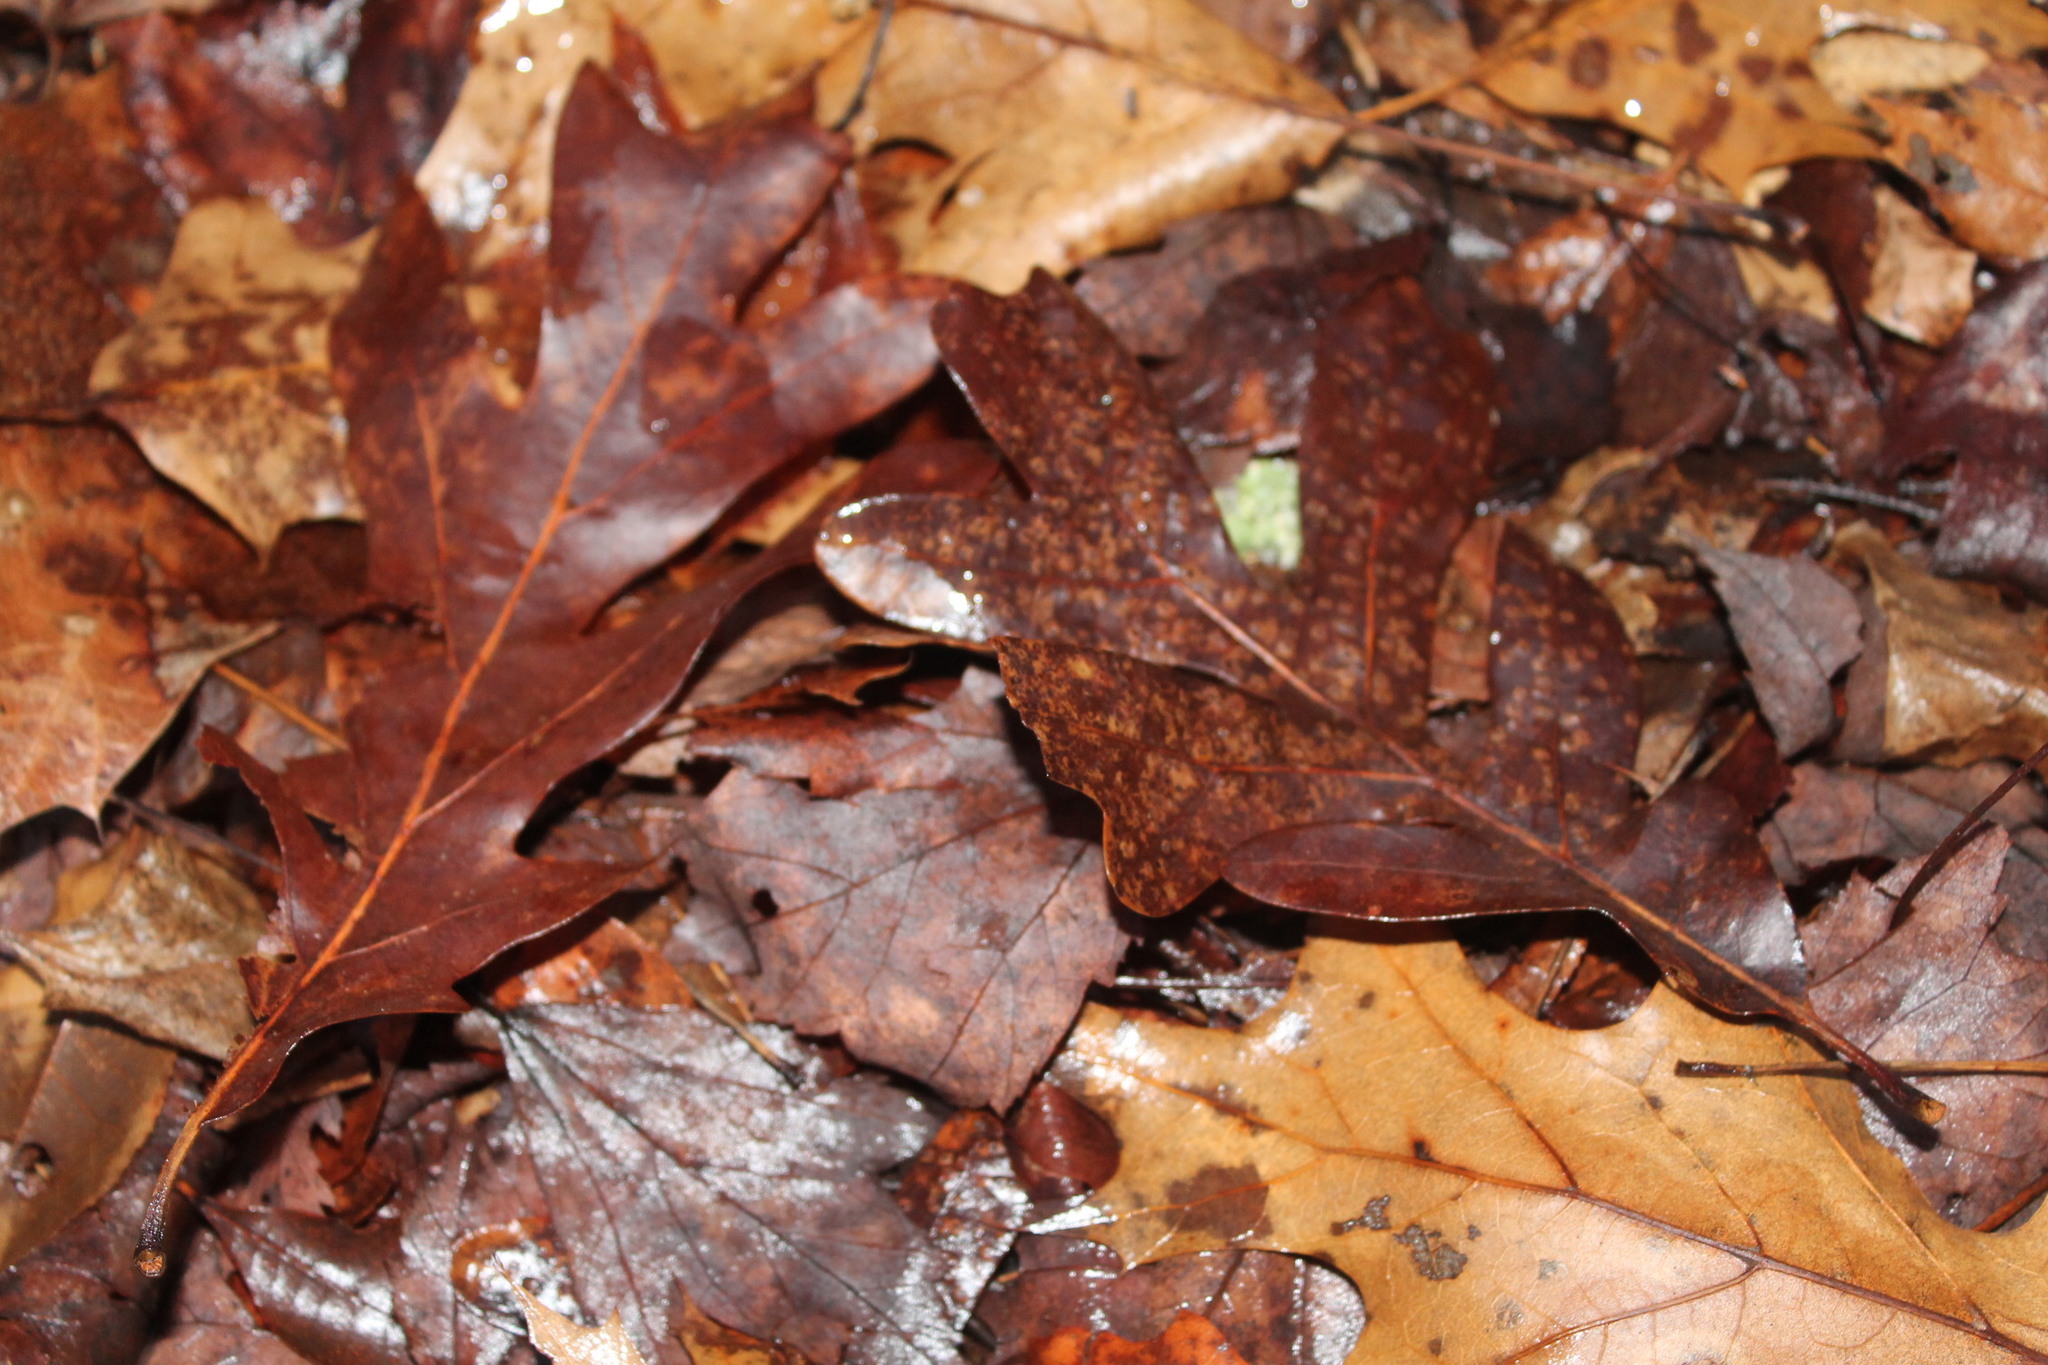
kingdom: Plantae
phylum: Tracheophyta
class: Magnoliopsida
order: Fagales
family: Fagaceae
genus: Quercus
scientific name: Quercus alba
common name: White oak
